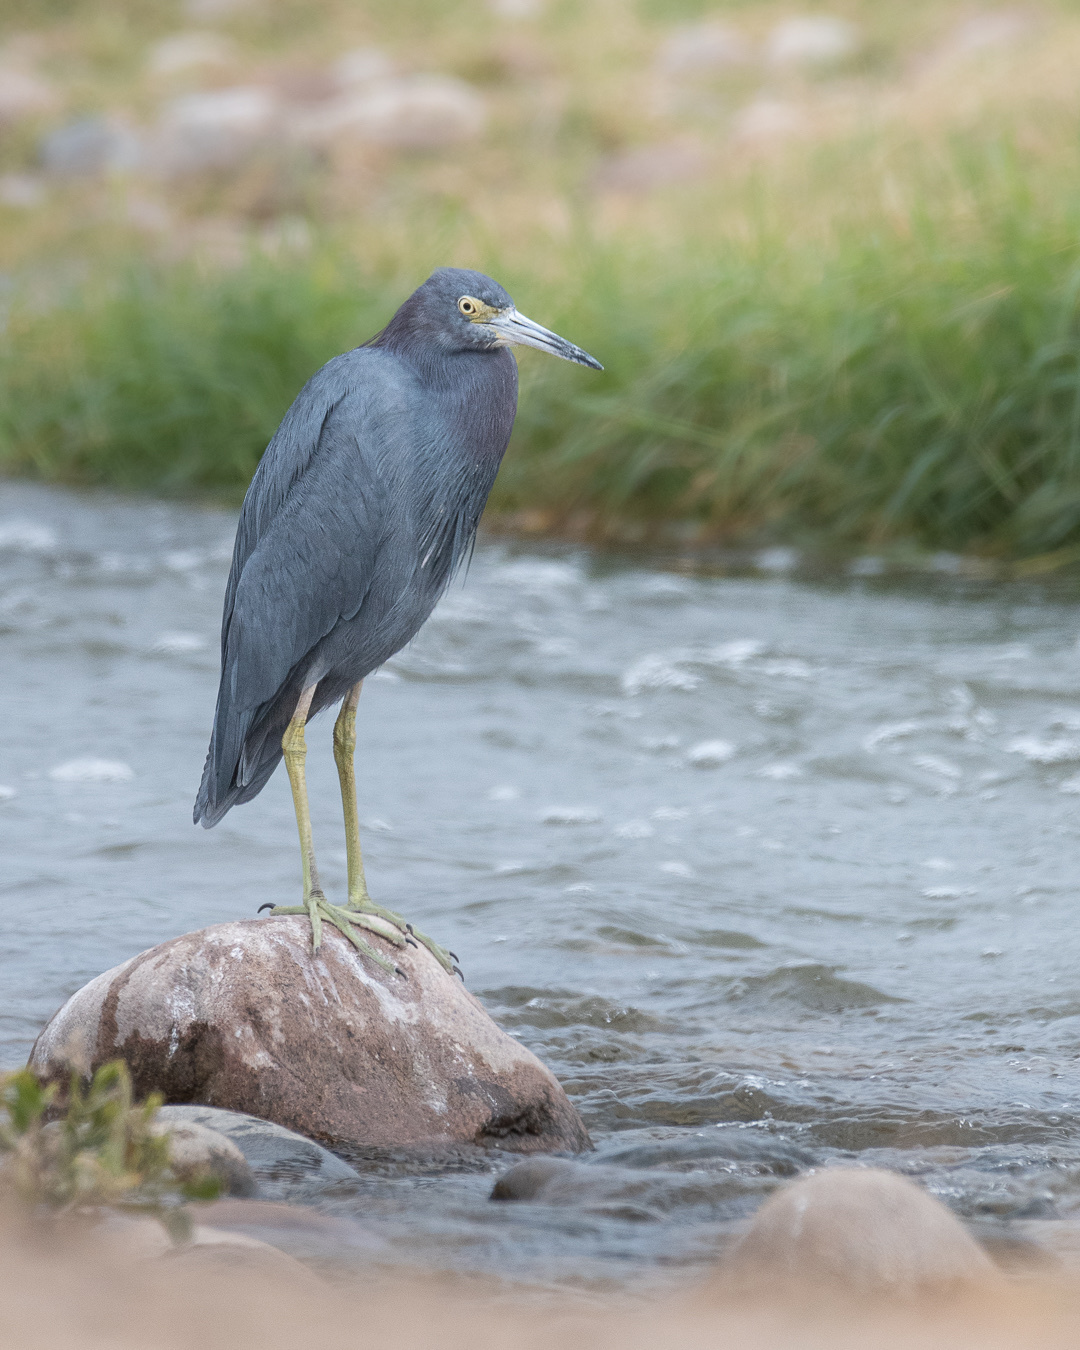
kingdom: Animalia
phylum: Chordata
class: Aves
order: Pelecaniformes
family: Ardeidae
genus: Egretta
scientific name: Egretta caerulea
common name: Little blue heron
